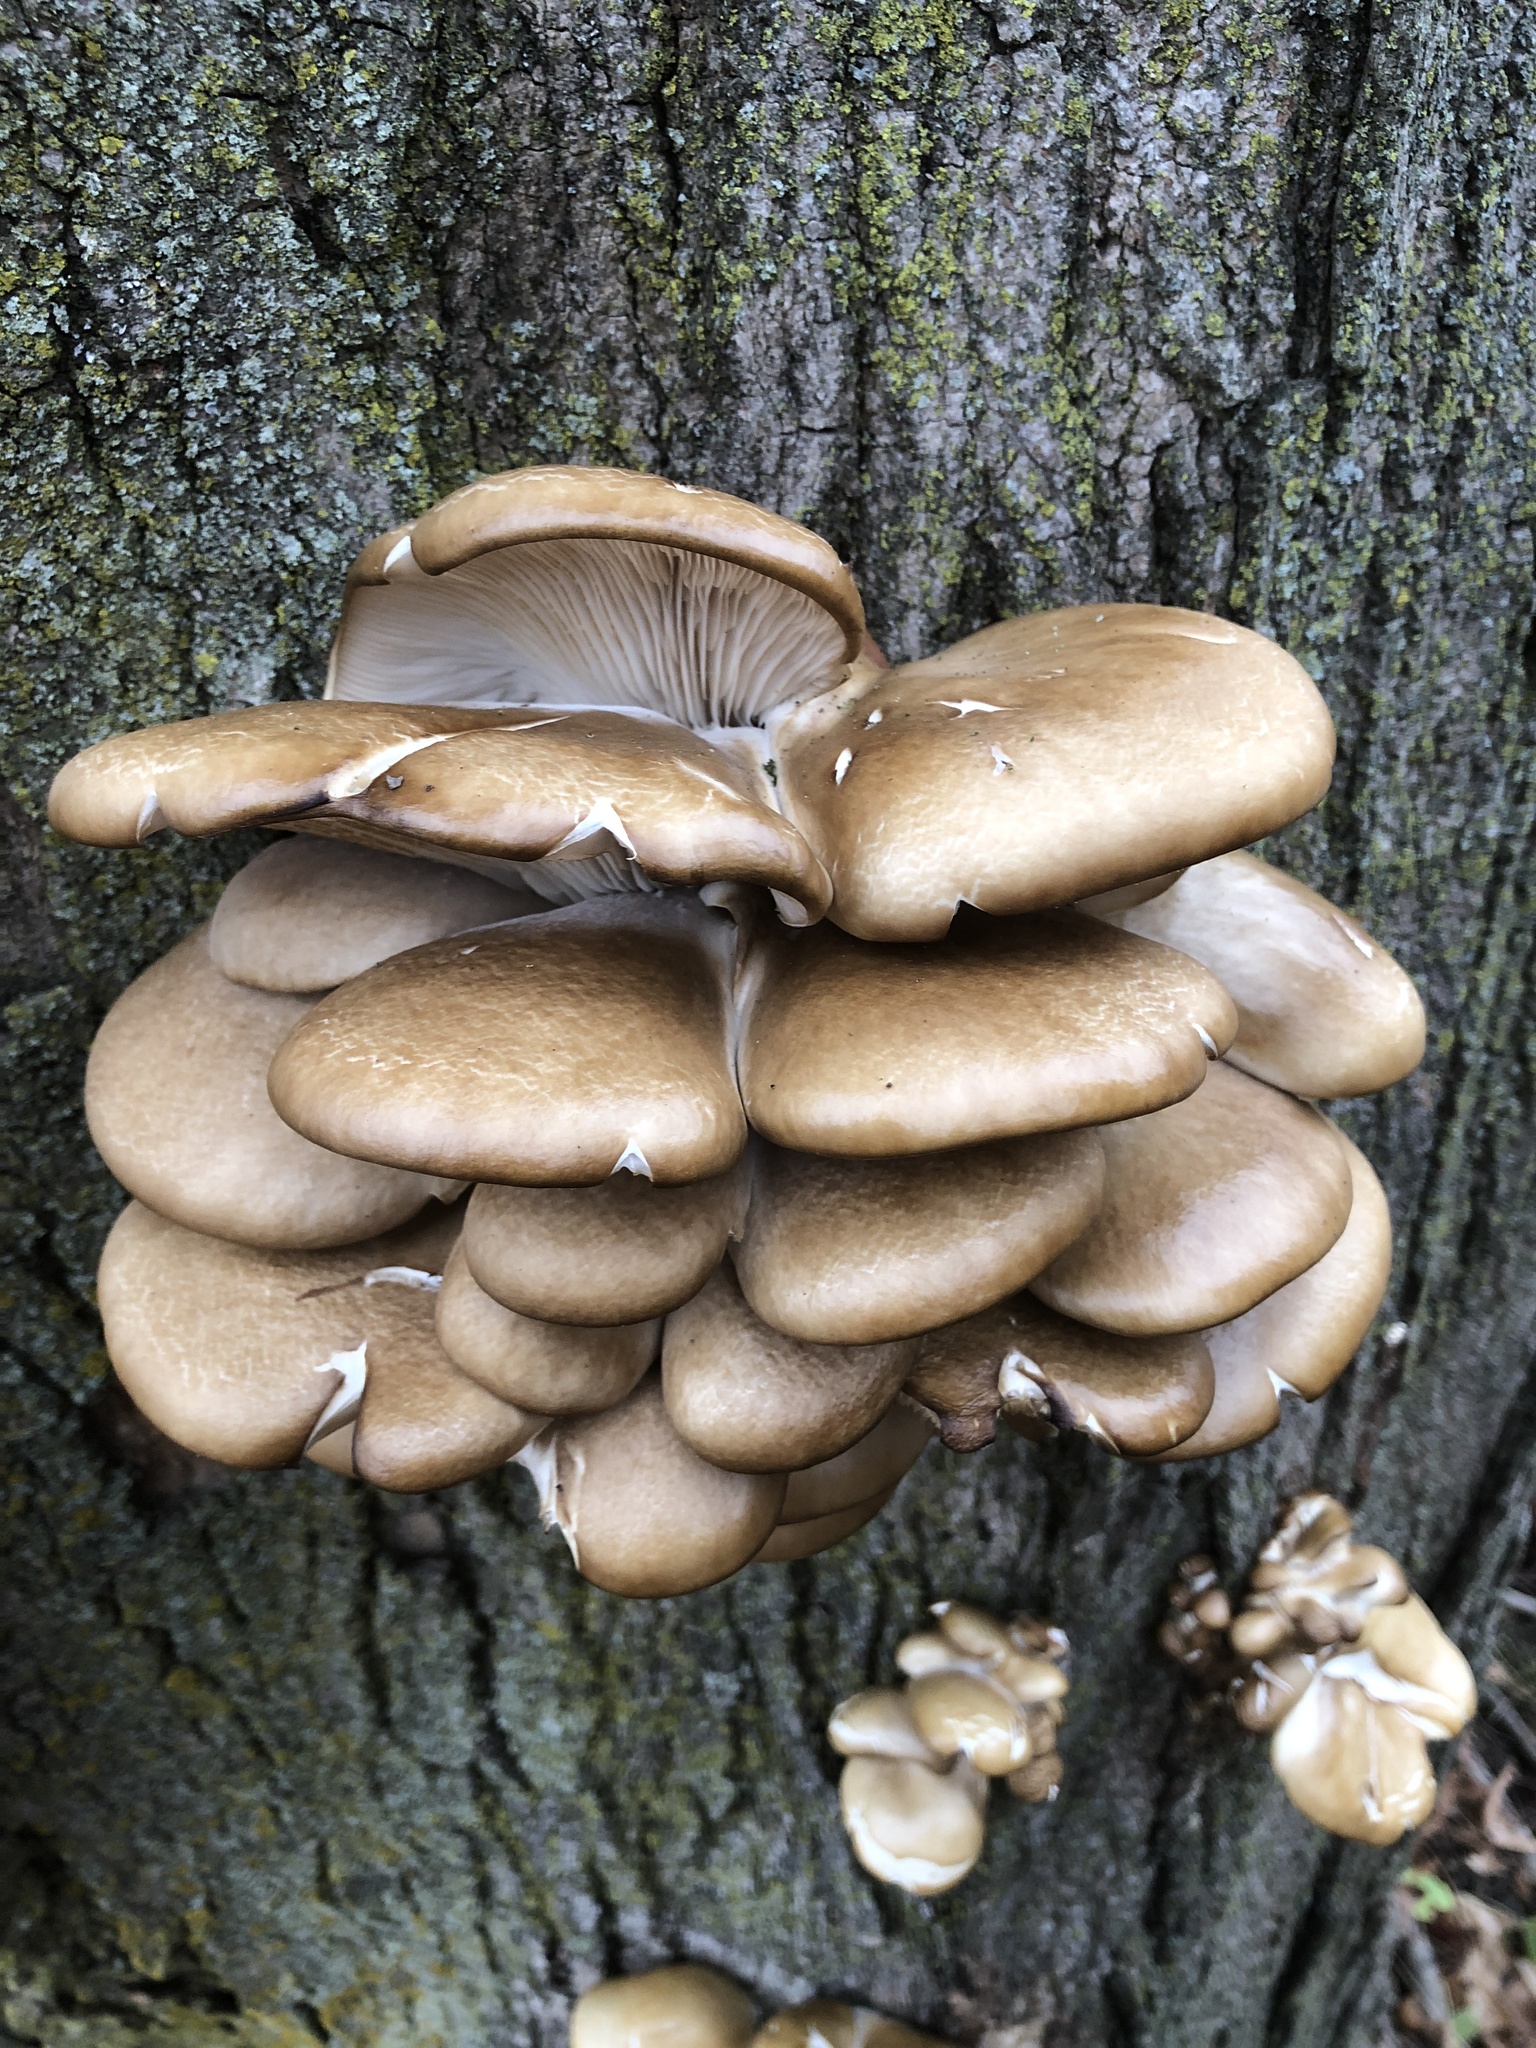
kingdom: Fungi
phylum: Basidiomycota
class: Agaricomycetes
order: Agaricales
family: Pleurotaceae
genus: Pleurotus
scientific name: Pleurotus ostreatus
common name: Oyster mushroom
